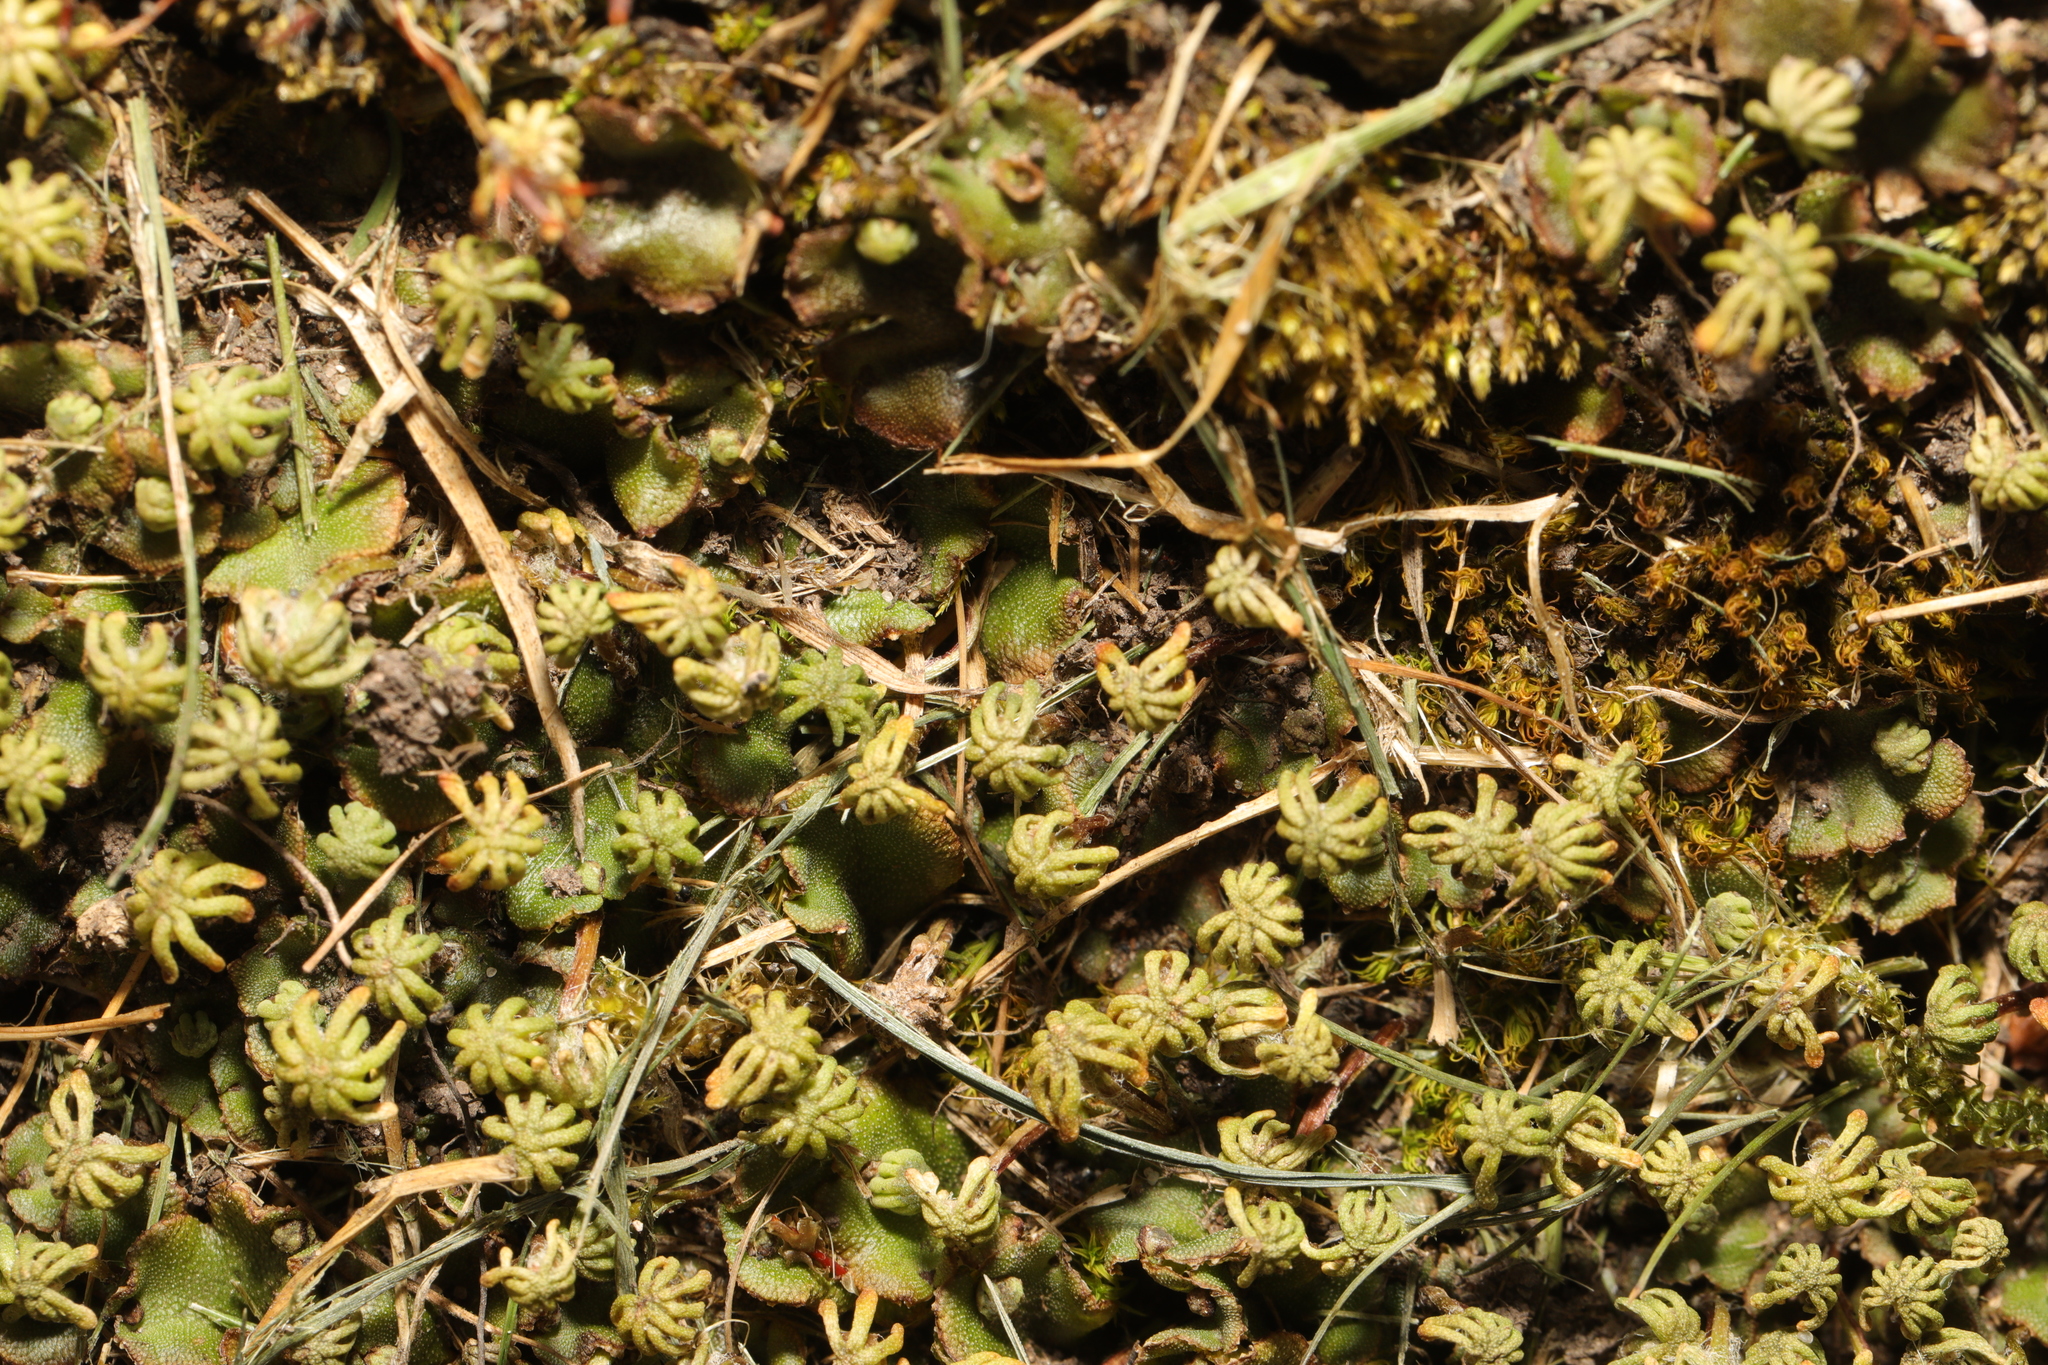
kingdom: Plantae
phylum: Marchantiophyta
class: Marchantiopsida
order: Marchantiales
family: Marchantiaceae
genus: Marchantia
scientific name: Marchantia polymorpha
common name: Common liverwort
